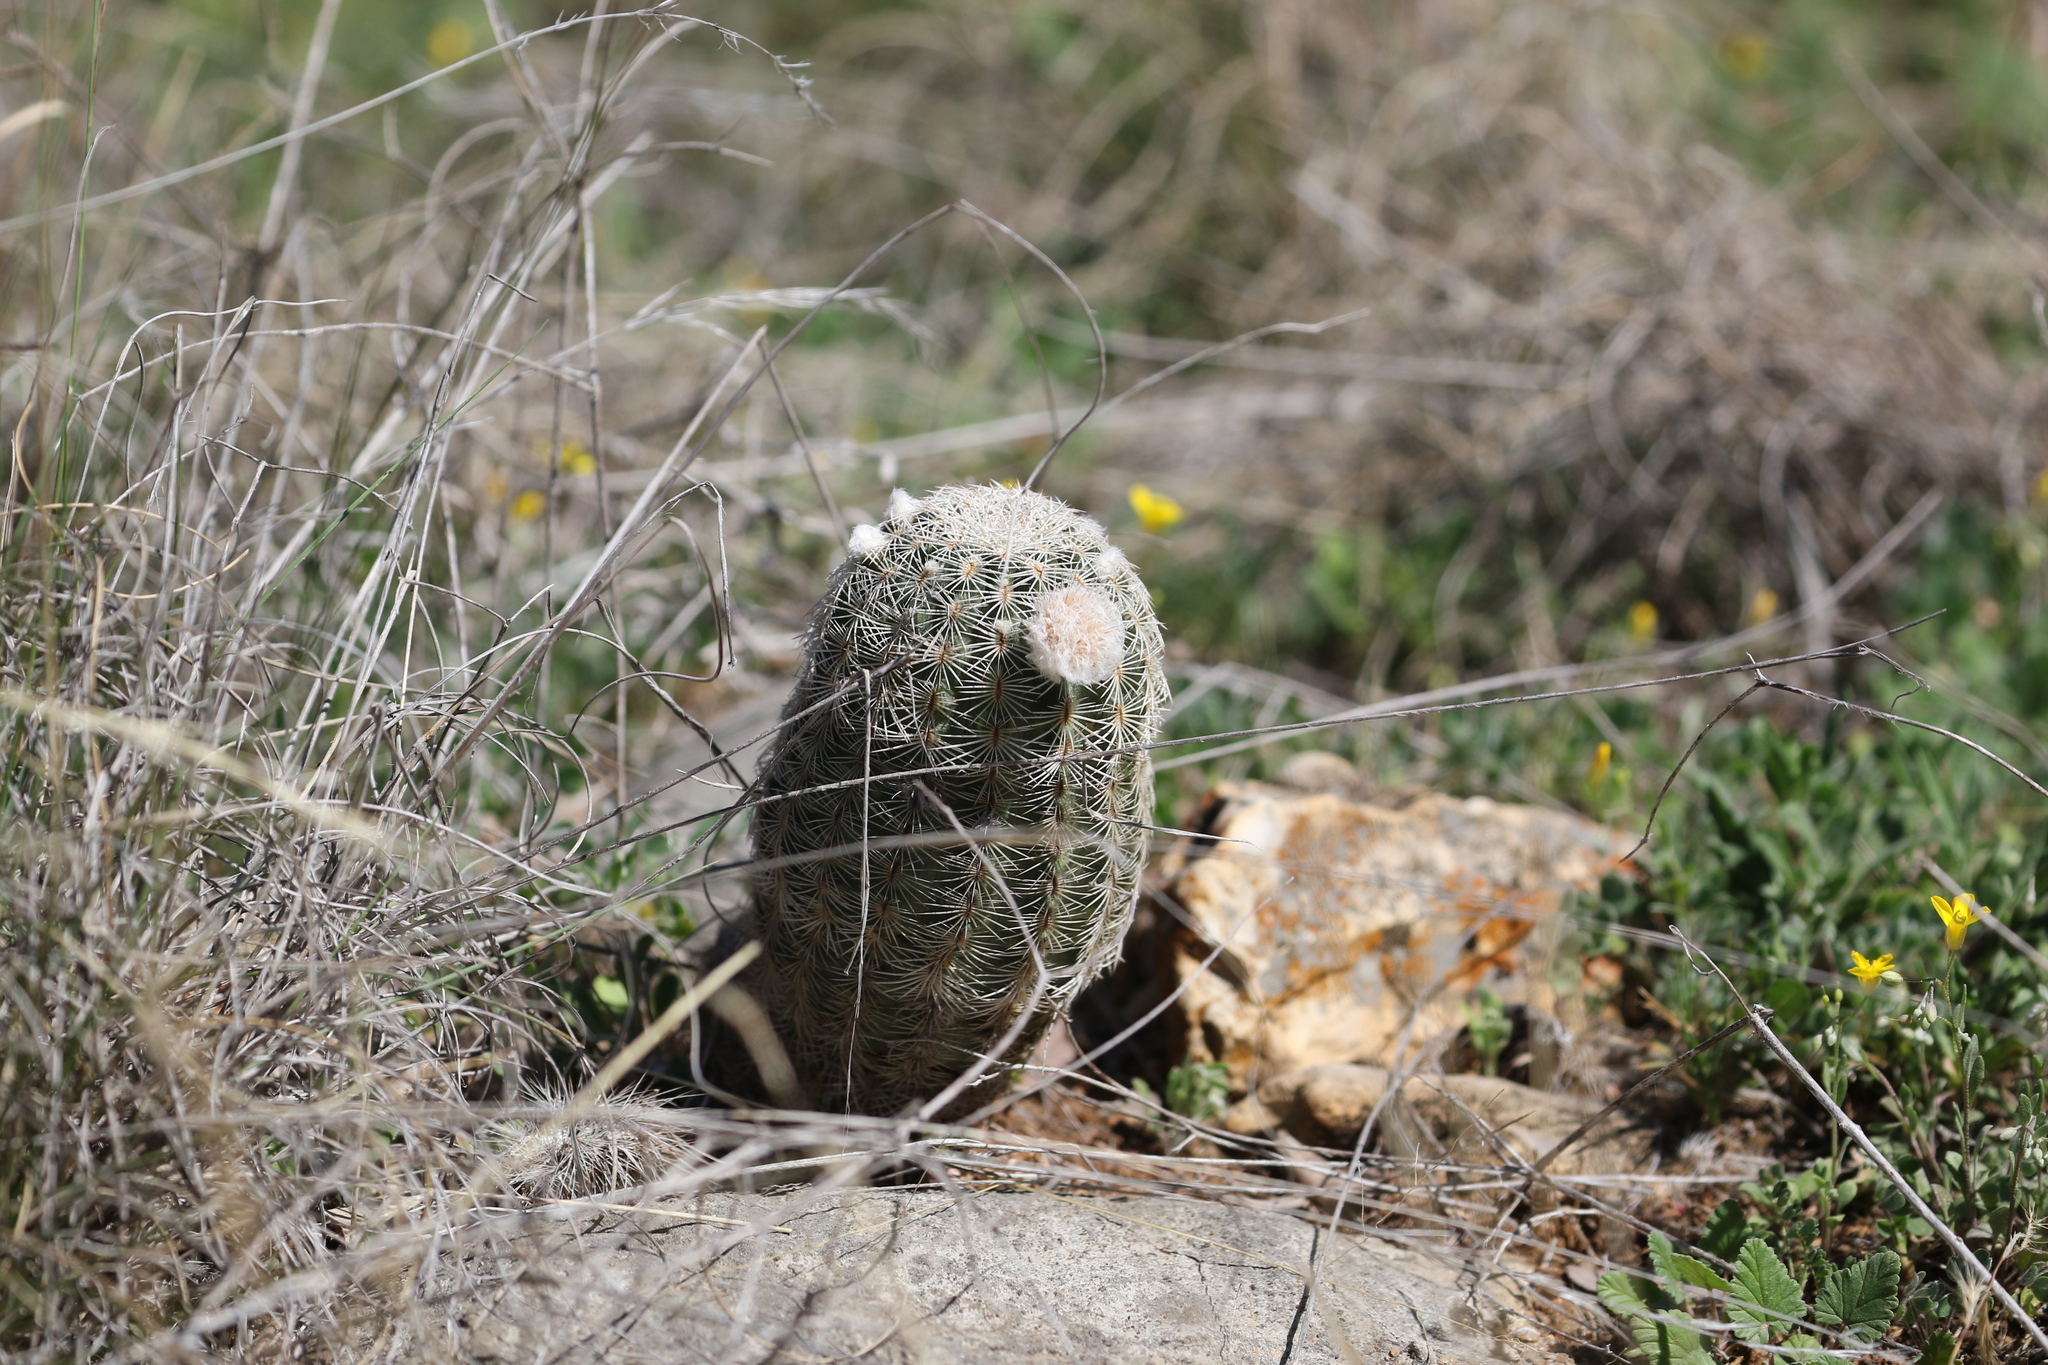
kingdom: Plantae
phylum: Tracheophyta
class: Magnoliopsida
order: Caryophyllales
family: Cactaceae
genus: Echinocereus
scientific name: Echinocereus reichenbachii
